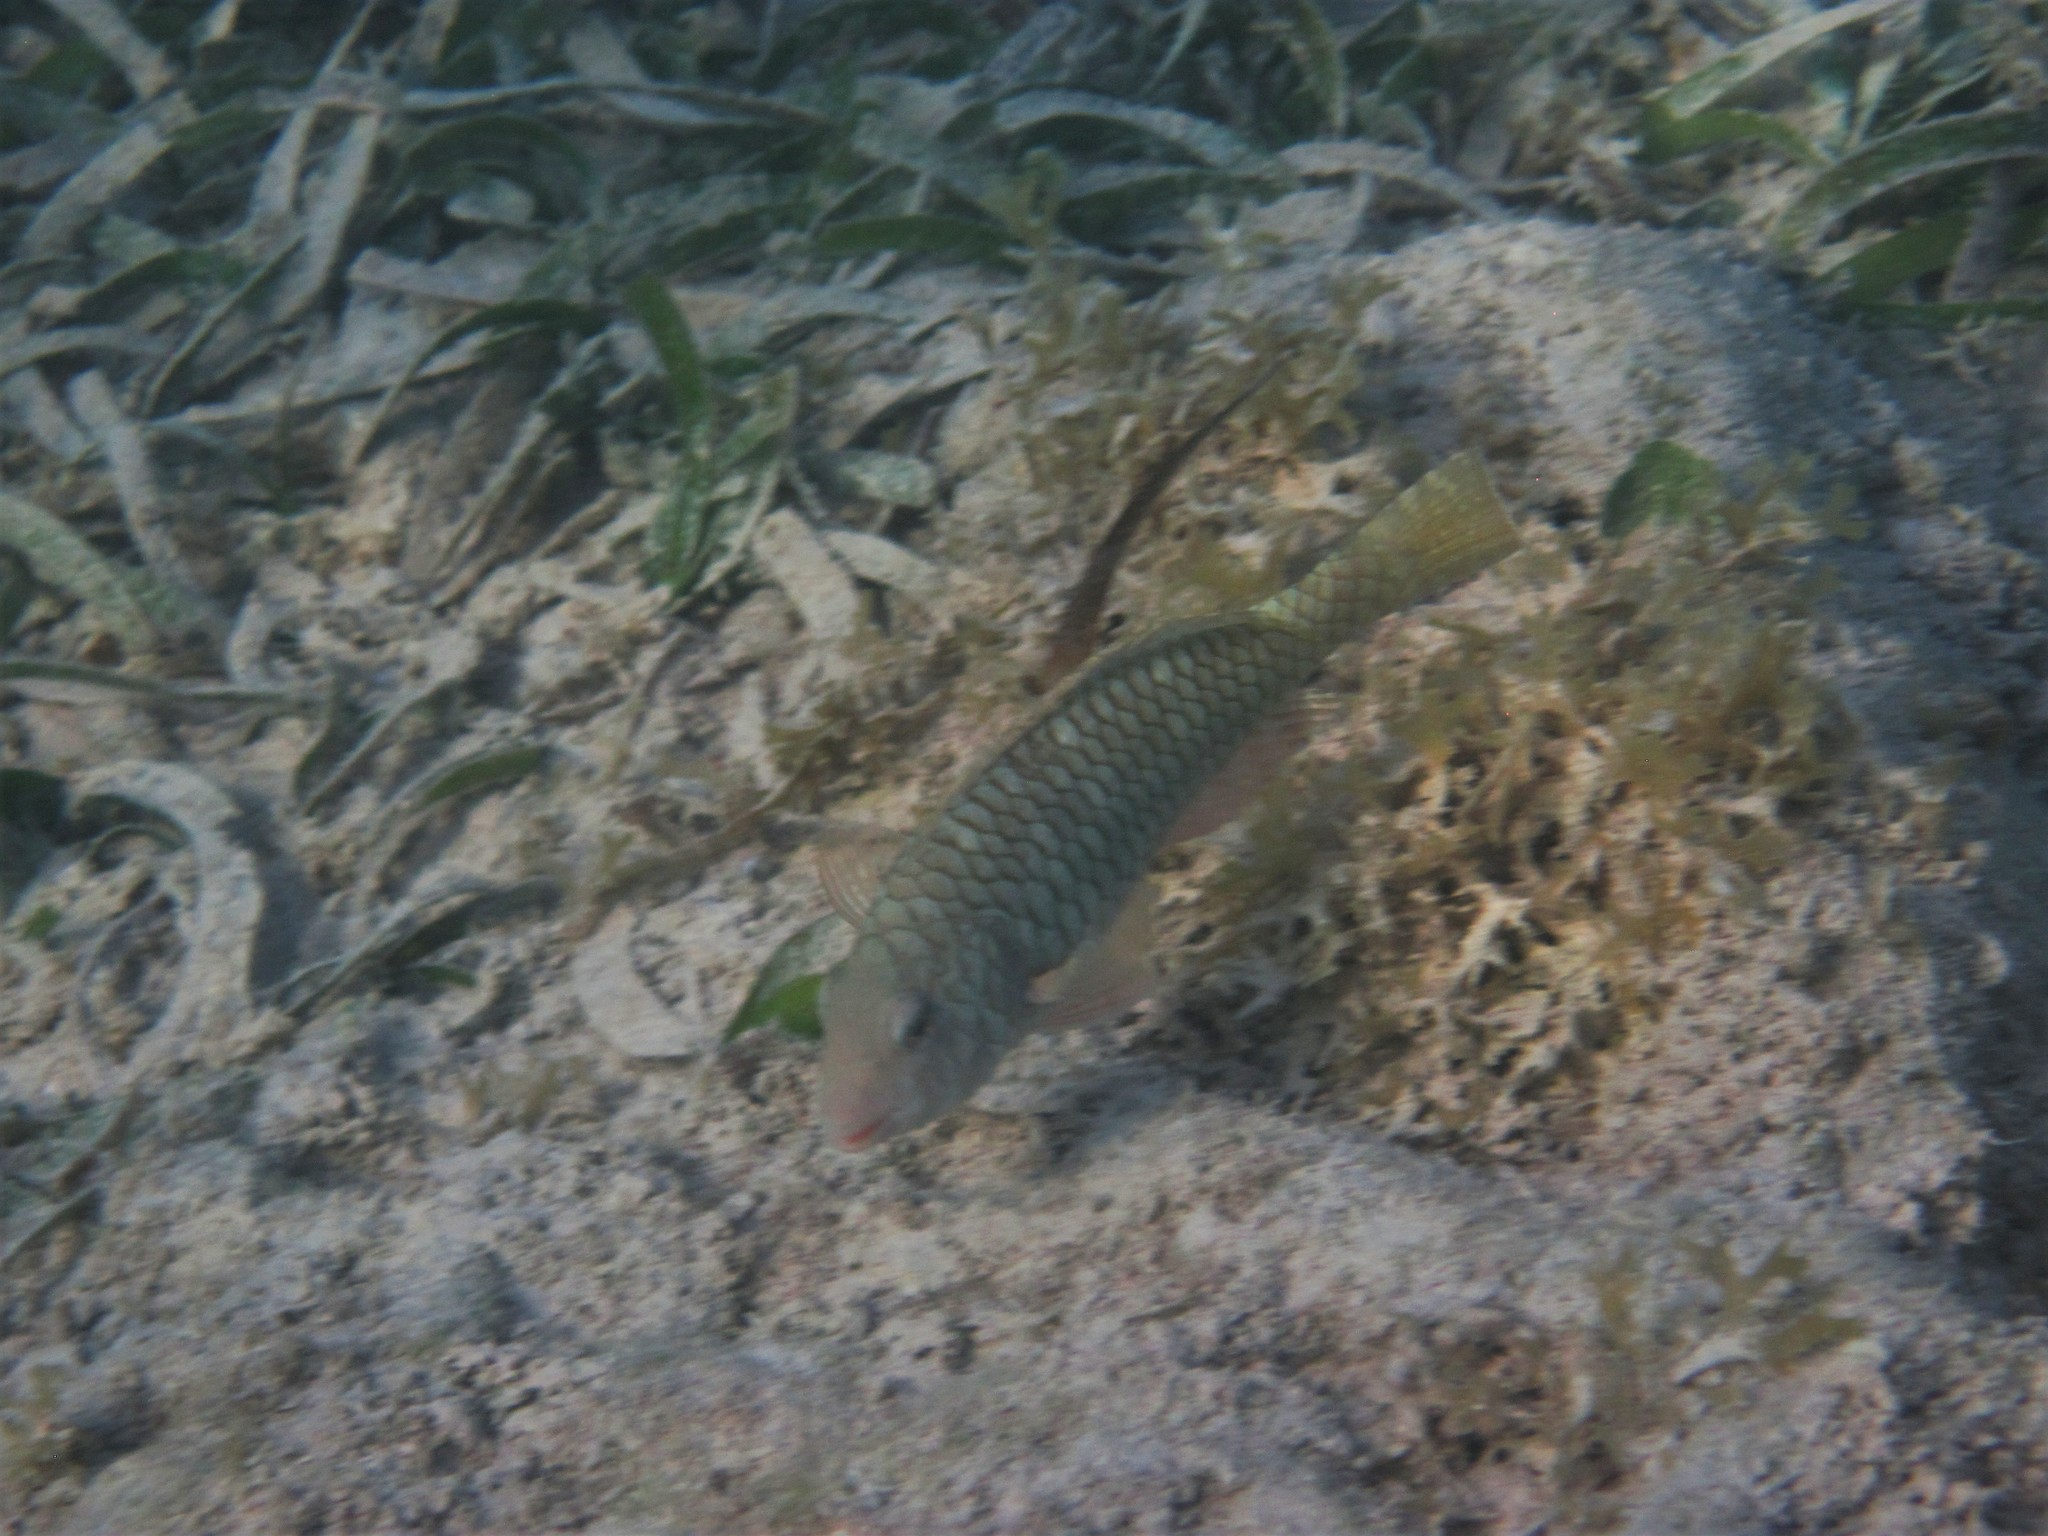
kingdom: Animalia
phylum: Chordata
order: Perciformes
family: Scaridae
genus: Sparisoma
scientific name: Sparisoma rubripinne
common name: Redfin parrotfish
